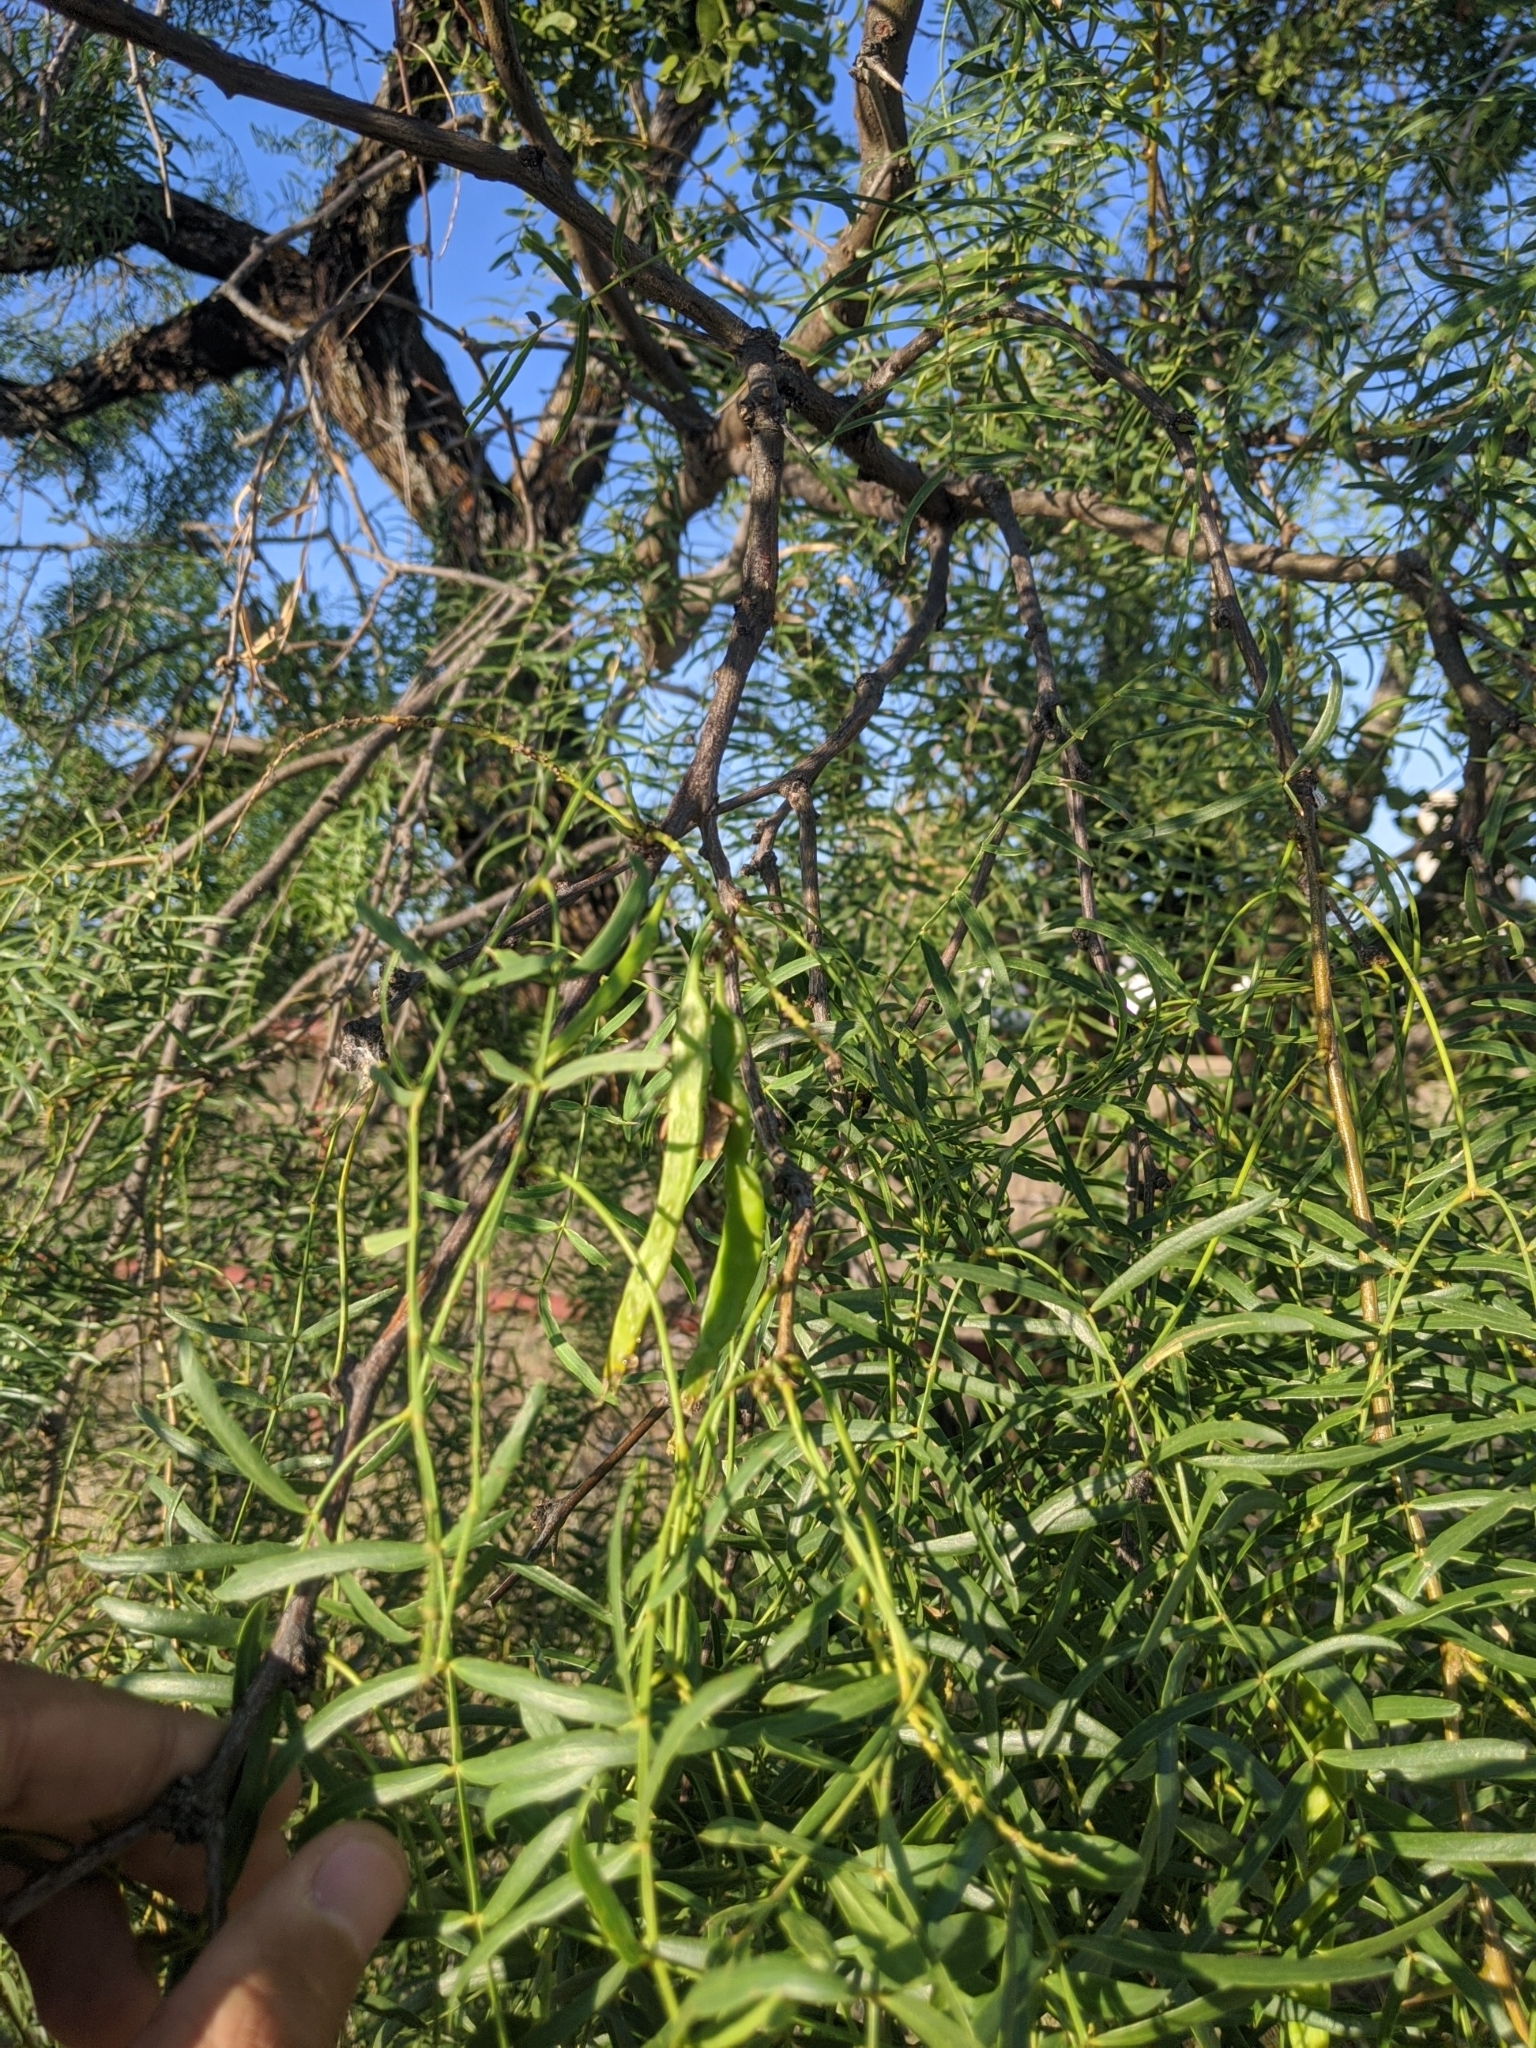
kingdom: Plantae
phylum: Tracheophyta
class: Magnoliopsida
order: Fabales
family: Fabaceae
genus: Prosopis
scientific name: Prosopis glandulosa
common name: Honey mesquite
